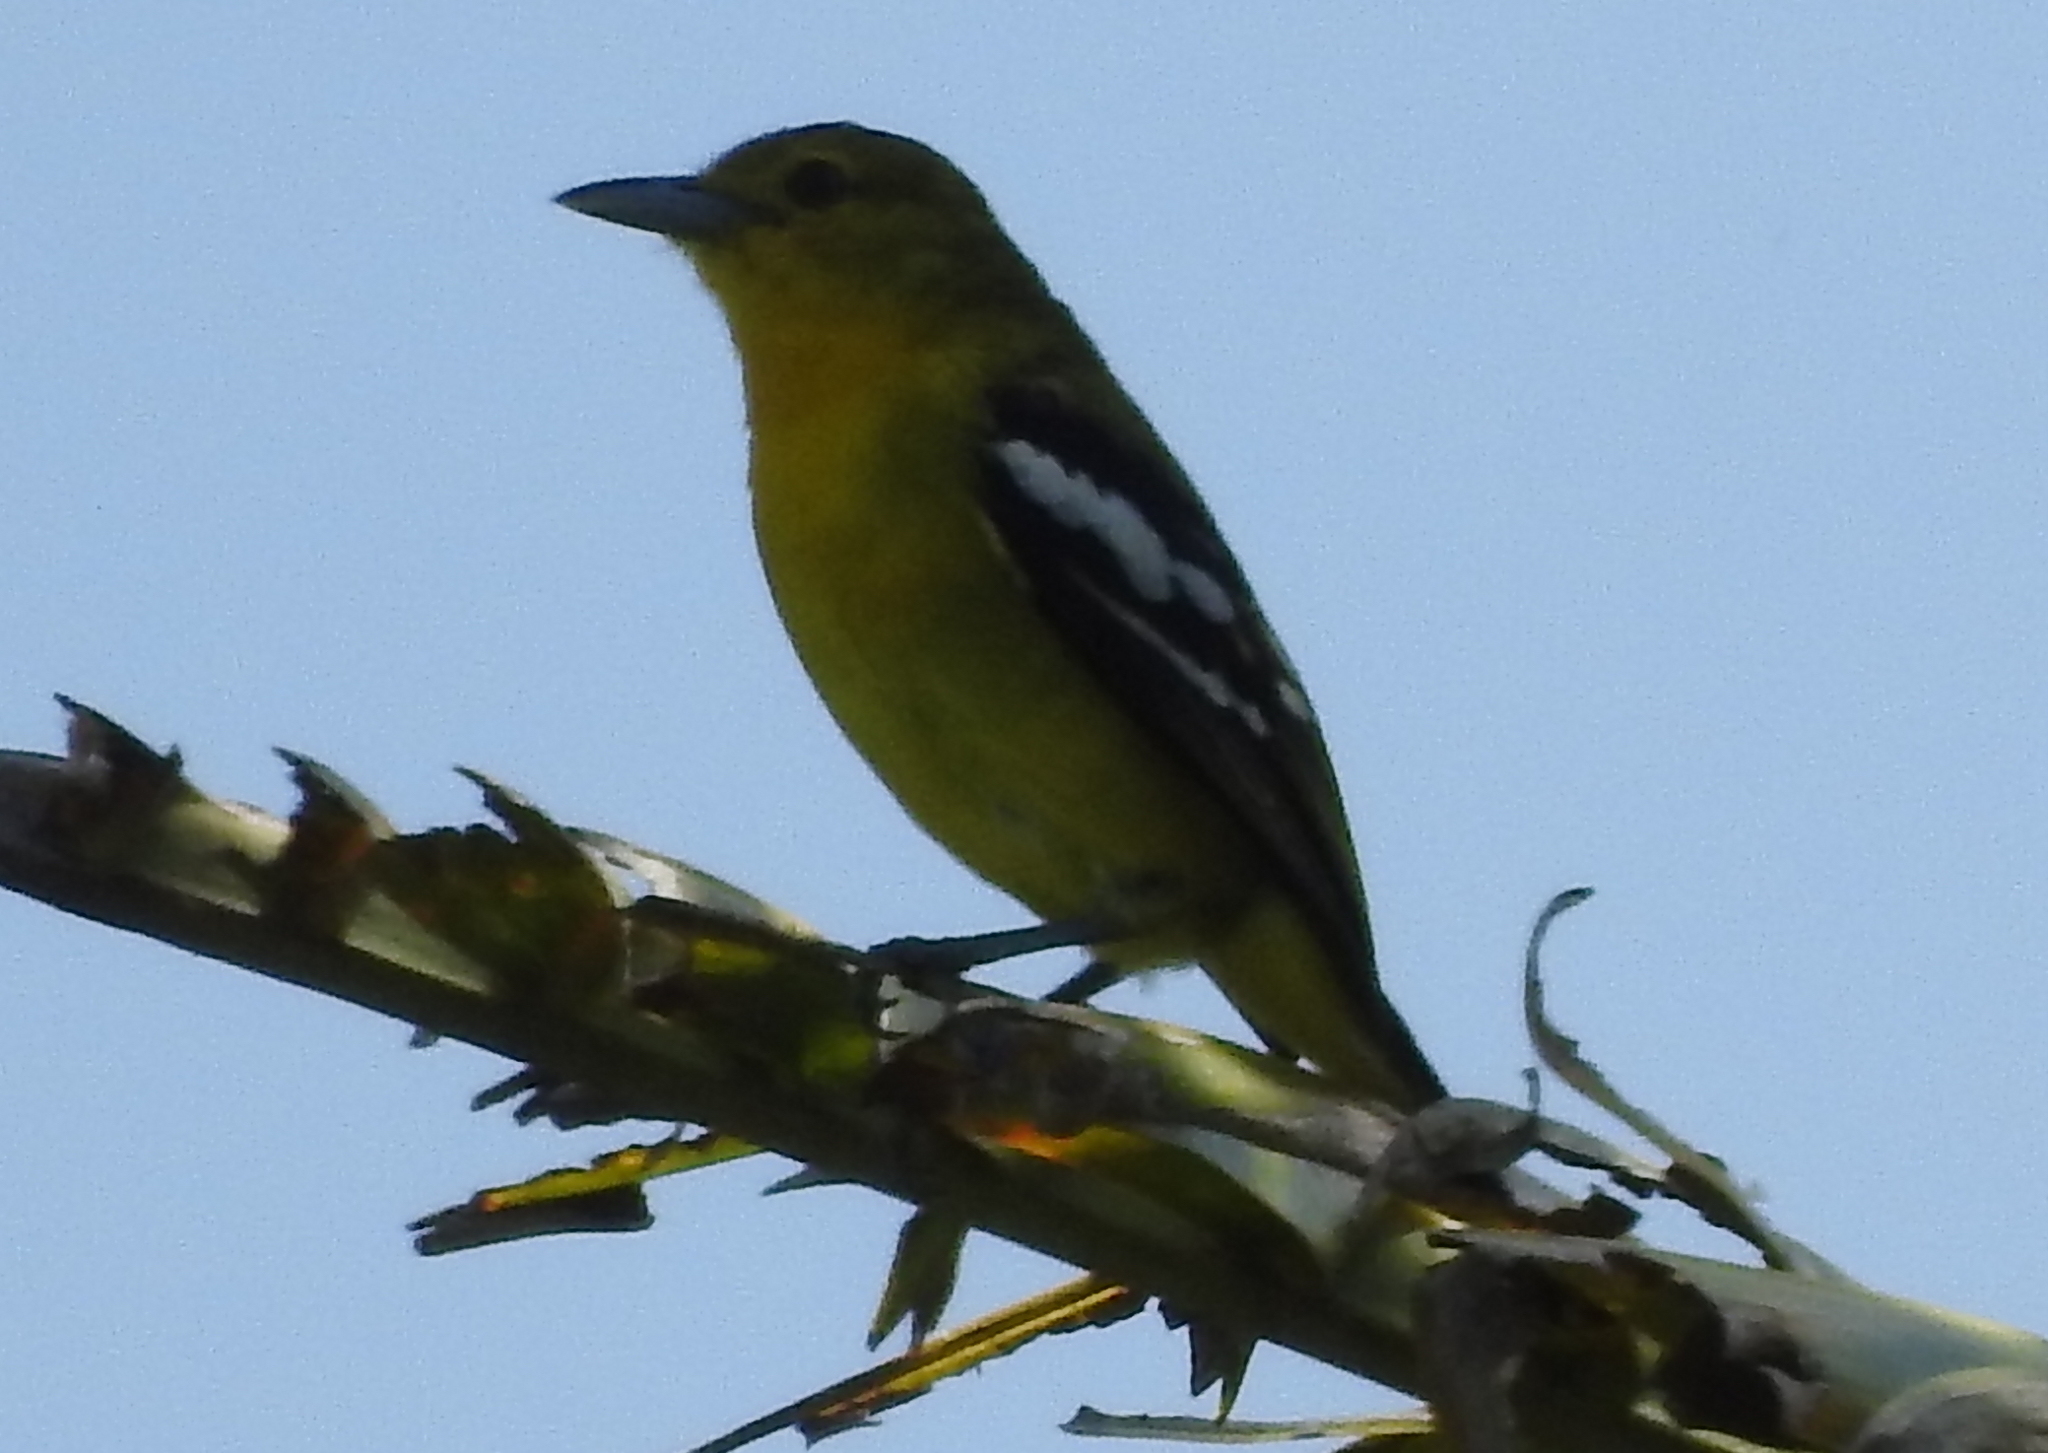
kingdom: Animalia
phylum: Chordata
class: Aves
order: Passeriformes
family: Aegithinidae
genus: Aegithina
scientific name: Aegithina tiphia
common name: Common iora
